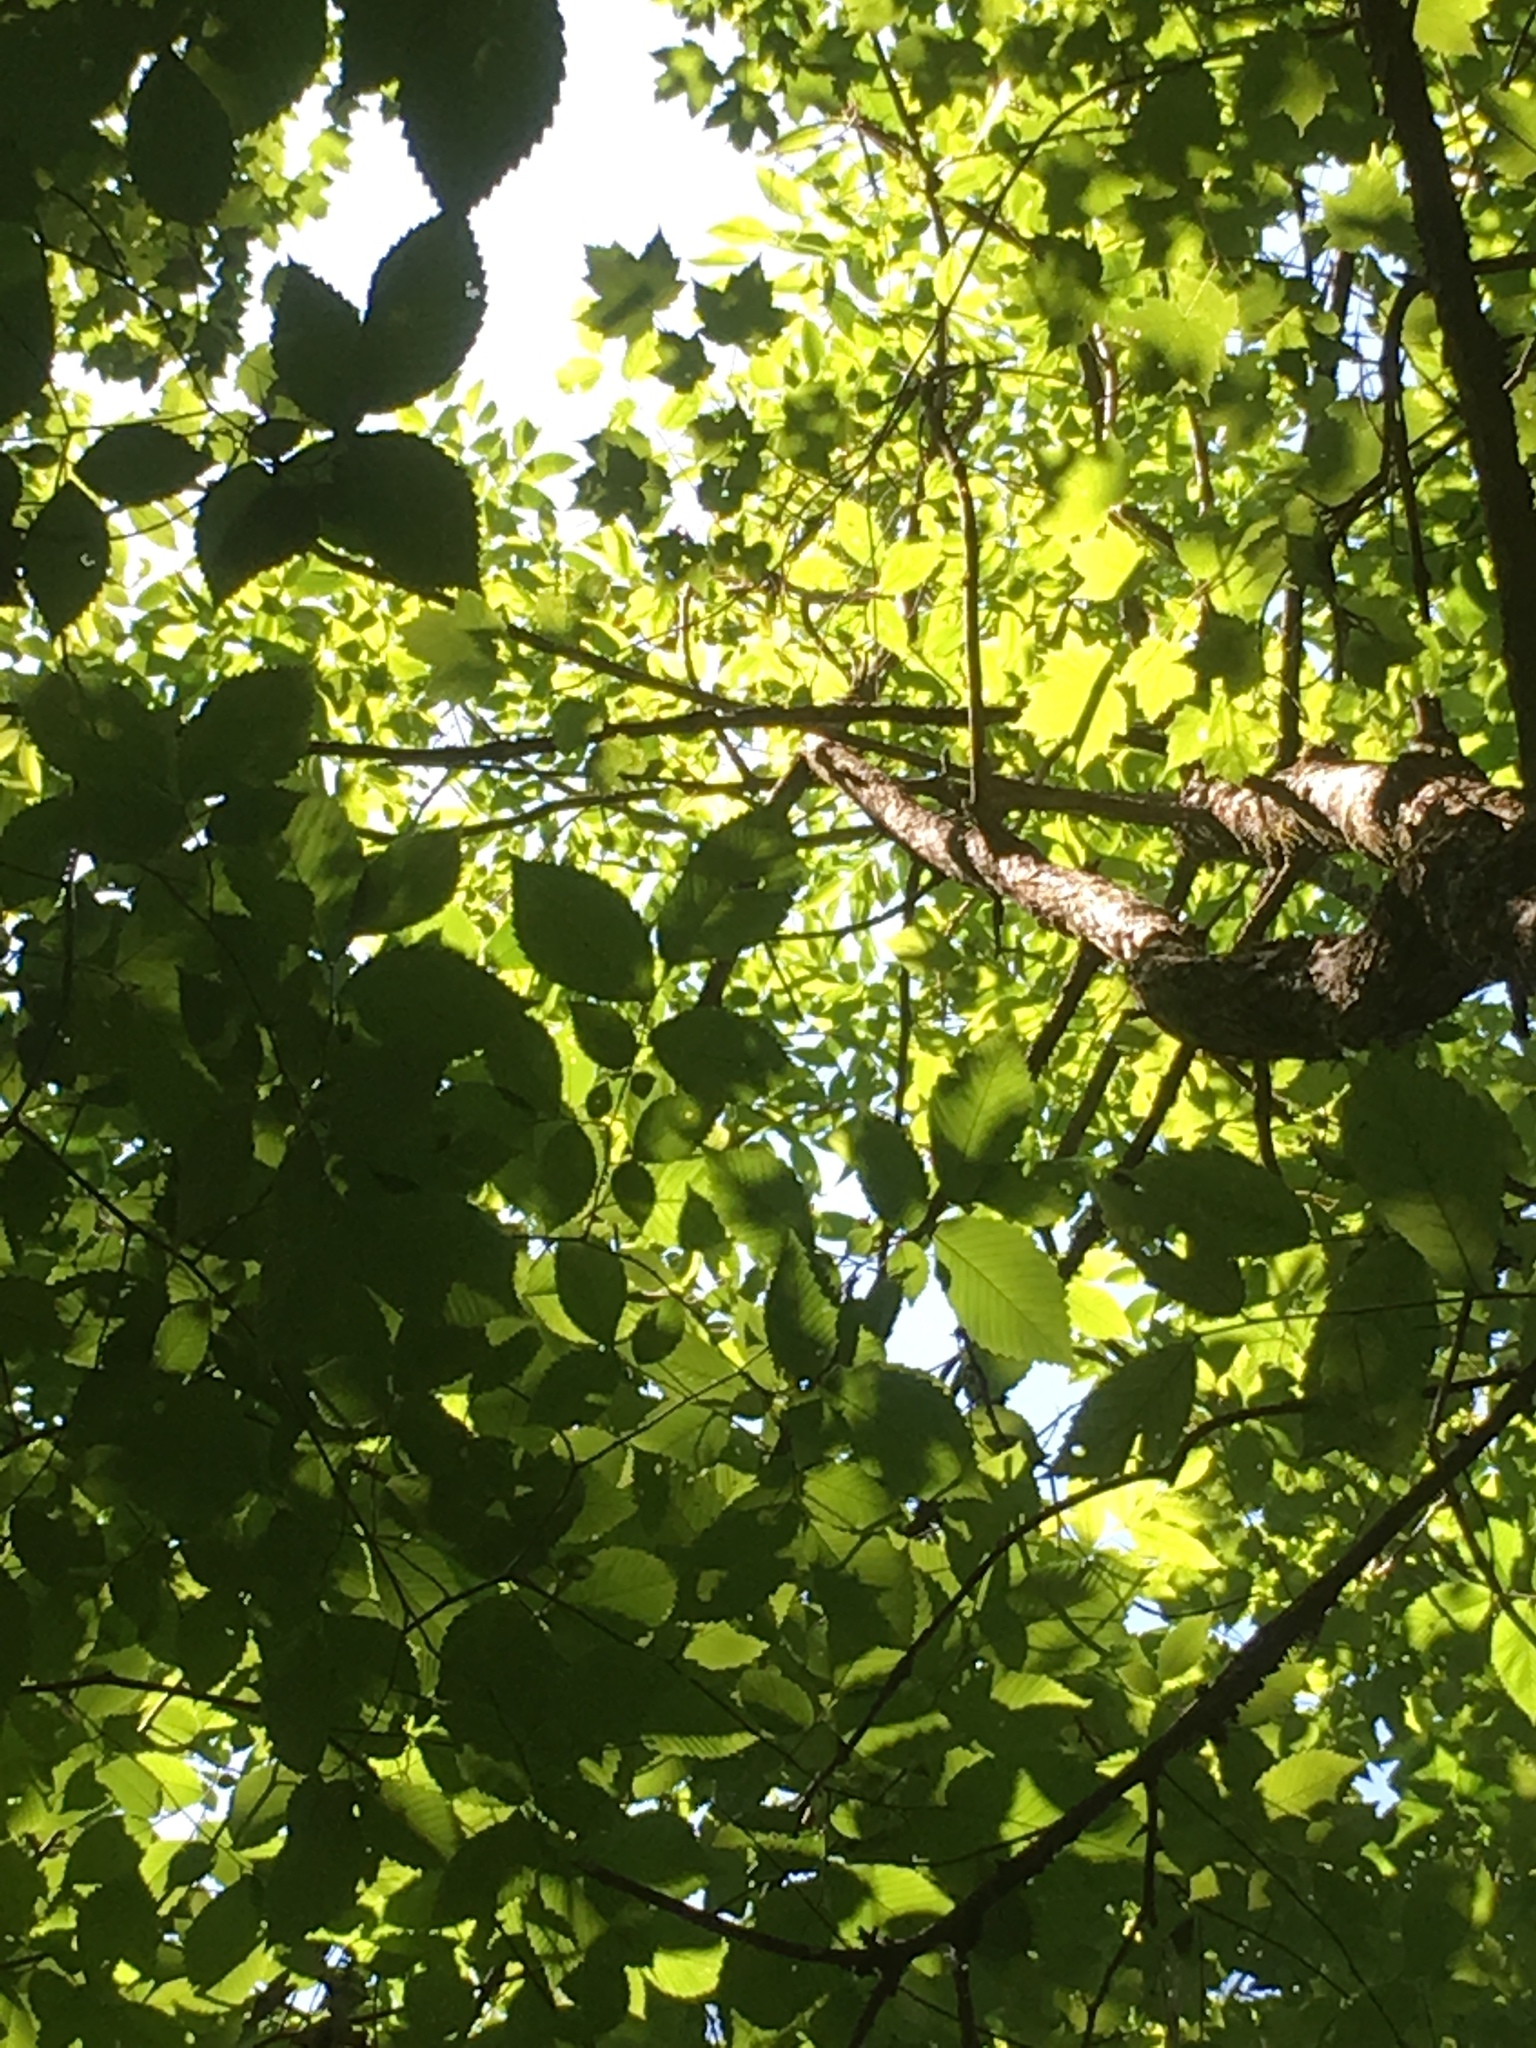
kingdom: Plantae
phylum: Tracheophyta
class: Magnoliopsida
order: Lamiales
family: Oleaceae
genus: Fraxinus
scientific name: Fraxinus nigra
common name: Black ash
